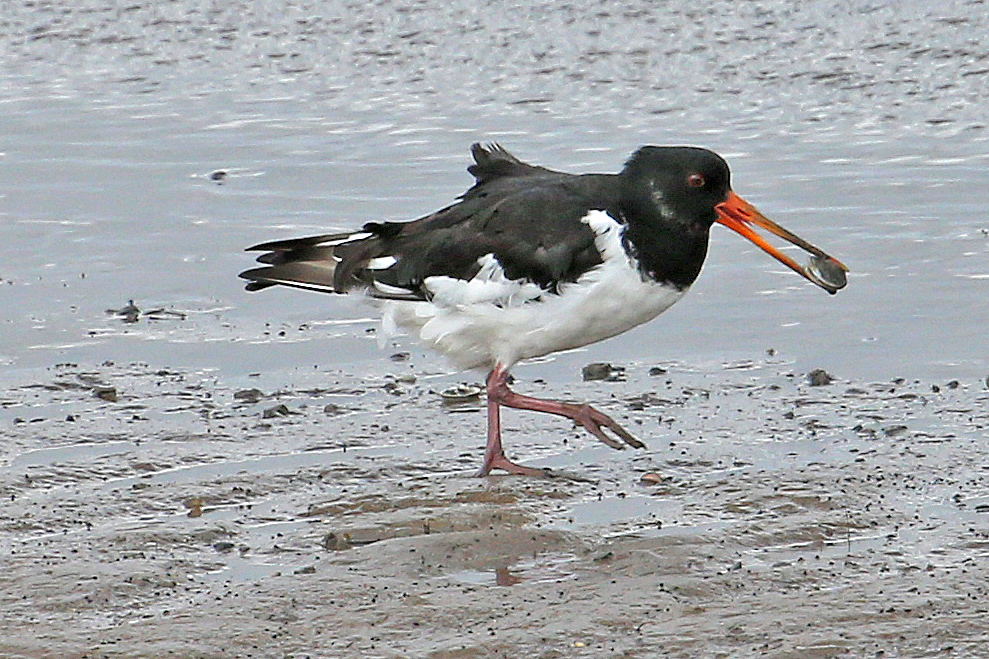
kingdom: Animalia
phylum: Chordata
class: Aves
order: Charadriiformes
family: Haematopodidae
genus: Haematopus
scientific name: Haematopus ostralegus
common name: Eurasian oystercatcher
